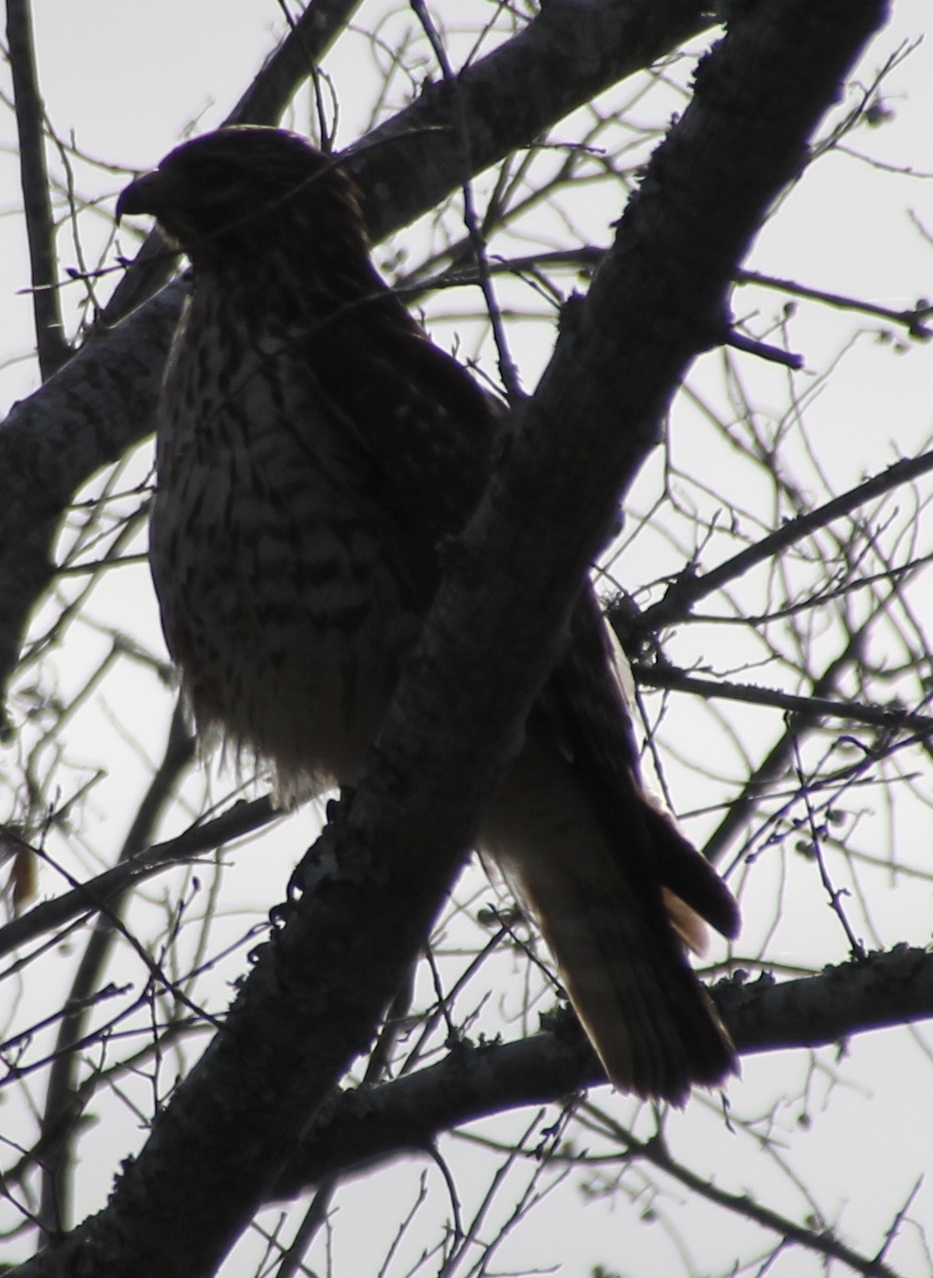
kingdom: Animalia
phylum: Chordata
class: Aves
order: Accipitriformes
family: Accipitridae
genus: Buteo
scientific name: Buteo lineatus
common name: Red-shouldered hawk
